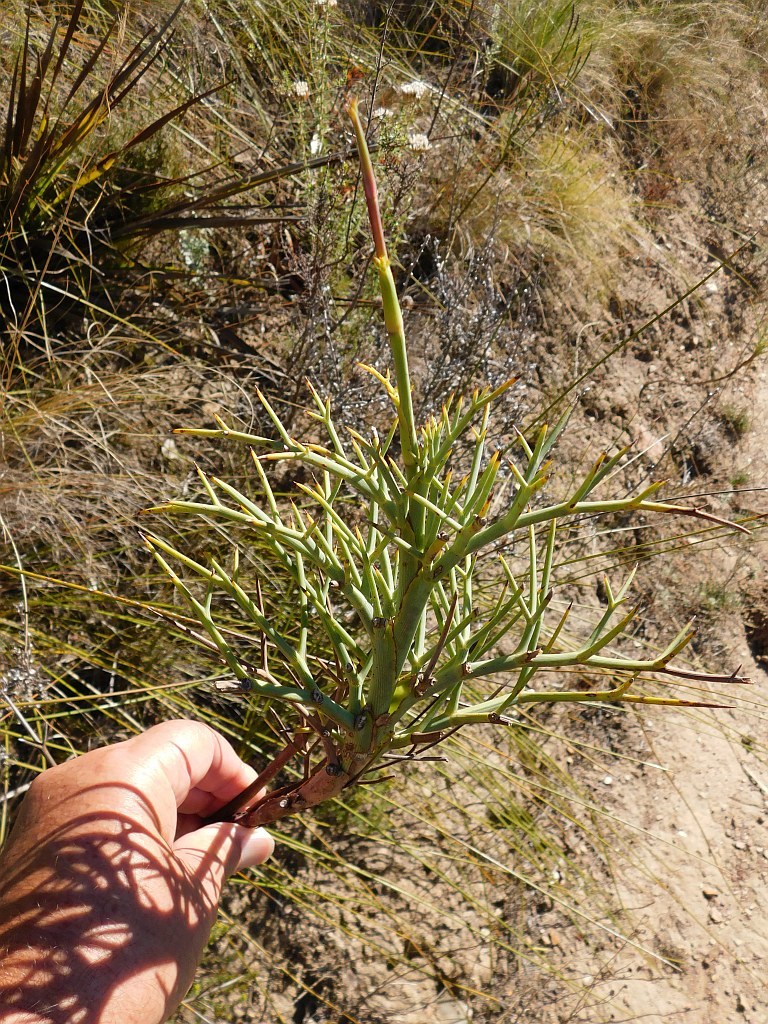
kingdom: Plantae
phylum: Tracheophyta
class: Magnoliopsida
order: Apiales
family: Apiaceae
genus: Notobubon
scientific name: Notobubon pungens
